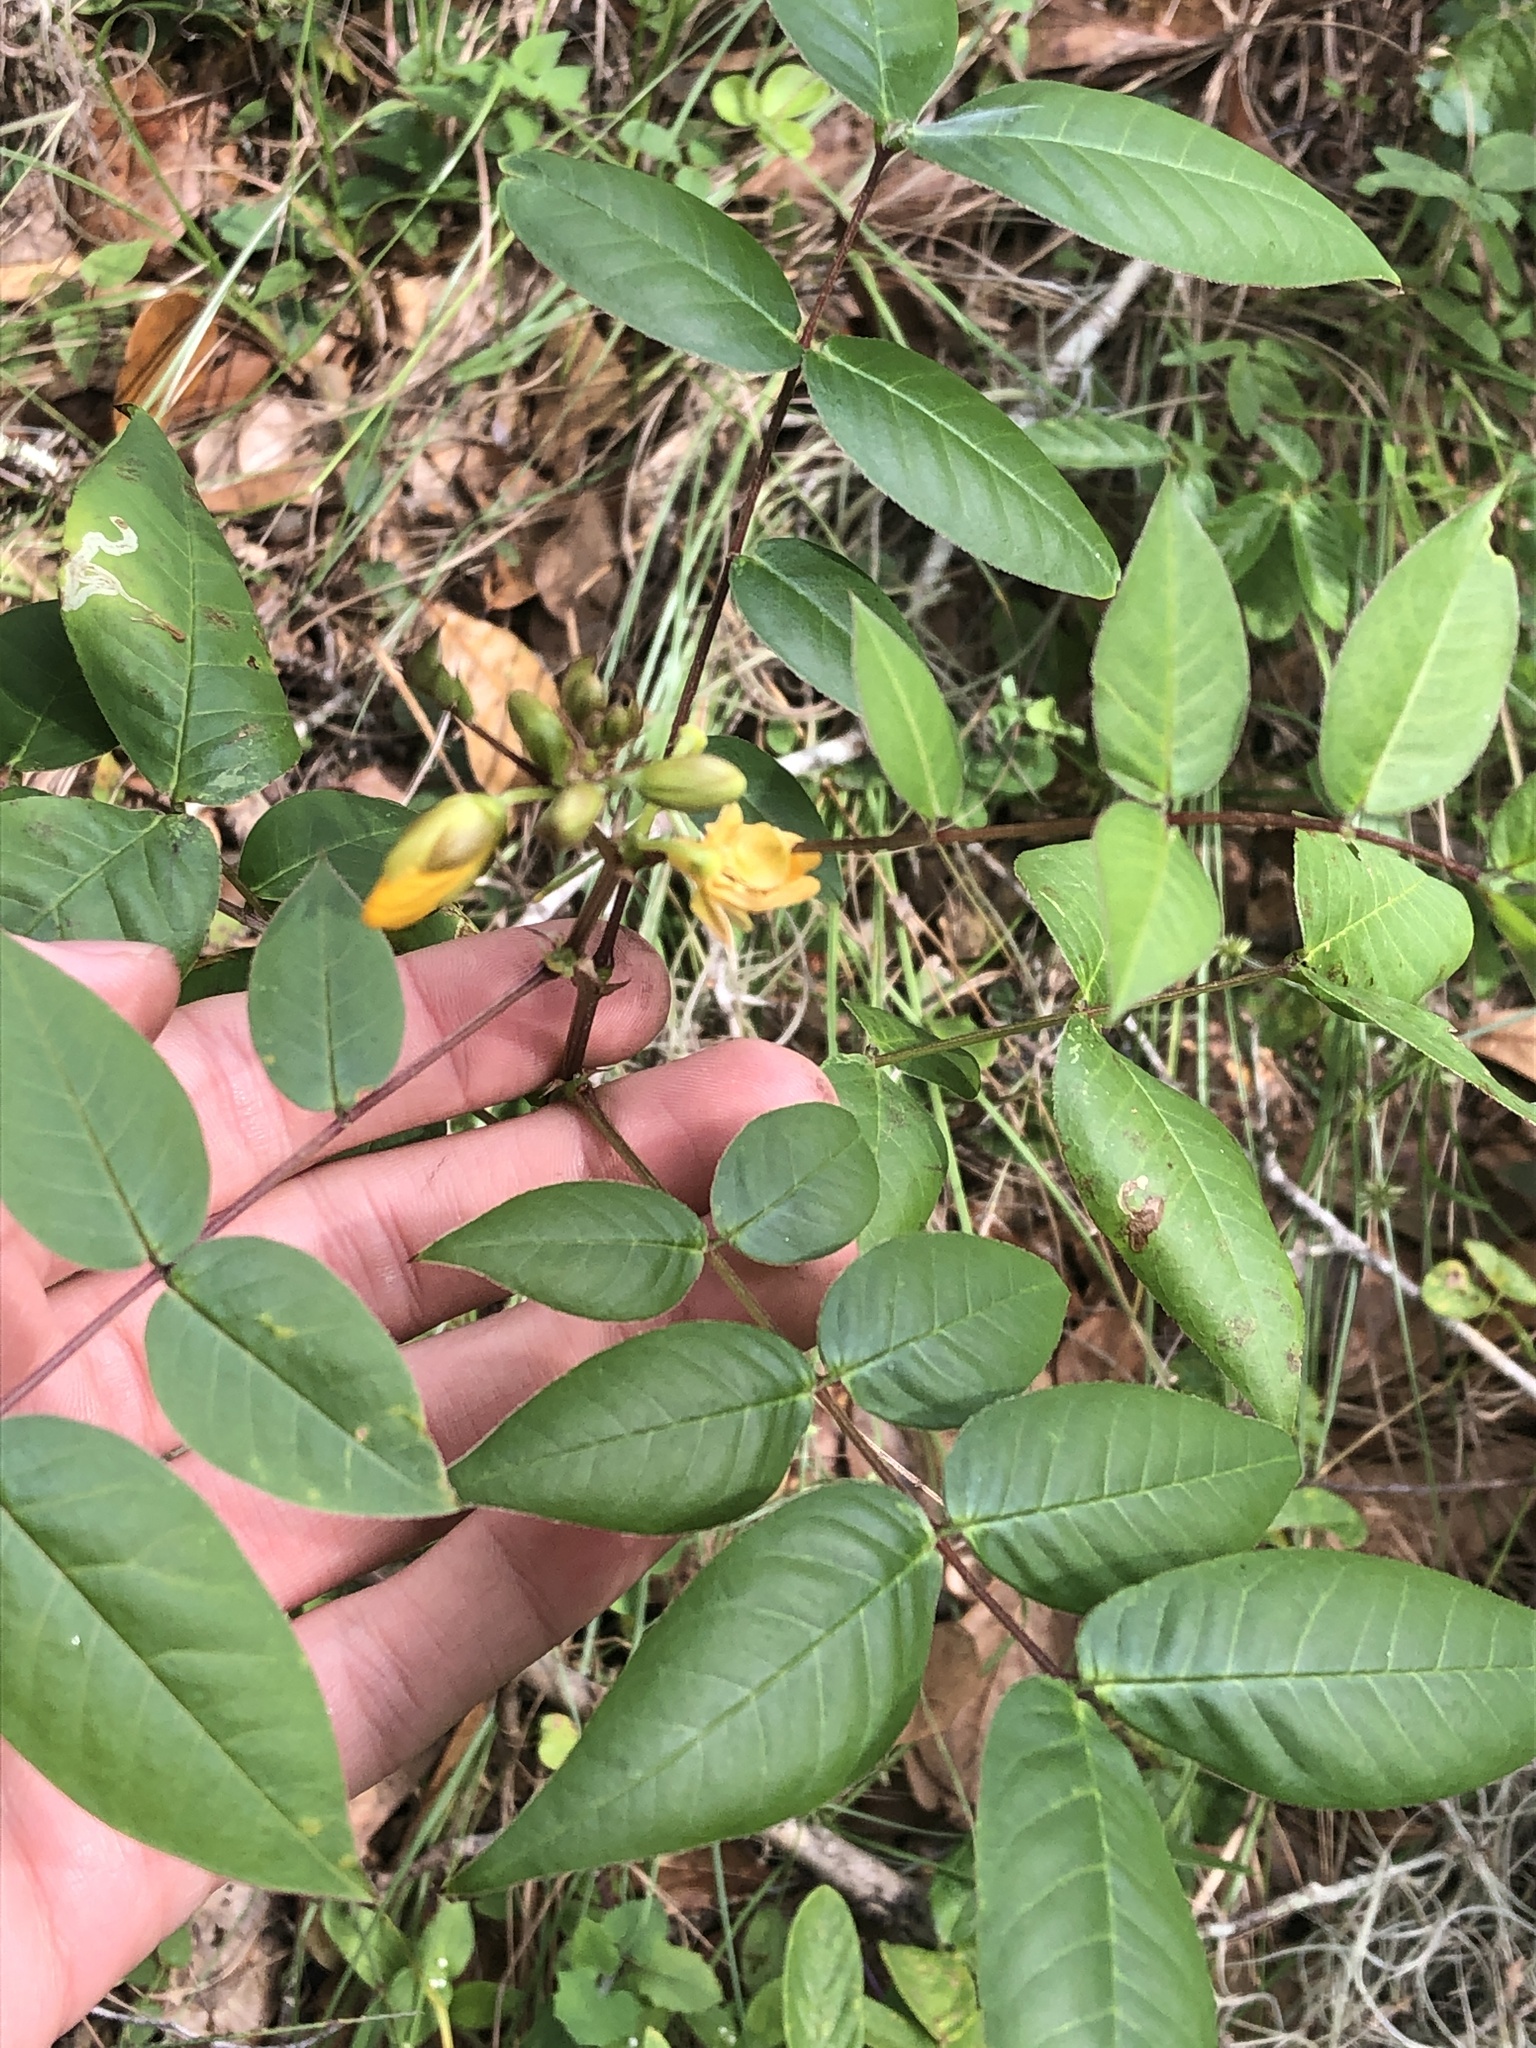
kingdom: Plantae
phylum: Tracheophyta
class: Magnoliopsida
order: Fabales
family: Fabaceae
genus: Senna
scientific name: Senna occidentalis
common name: Septicweed
